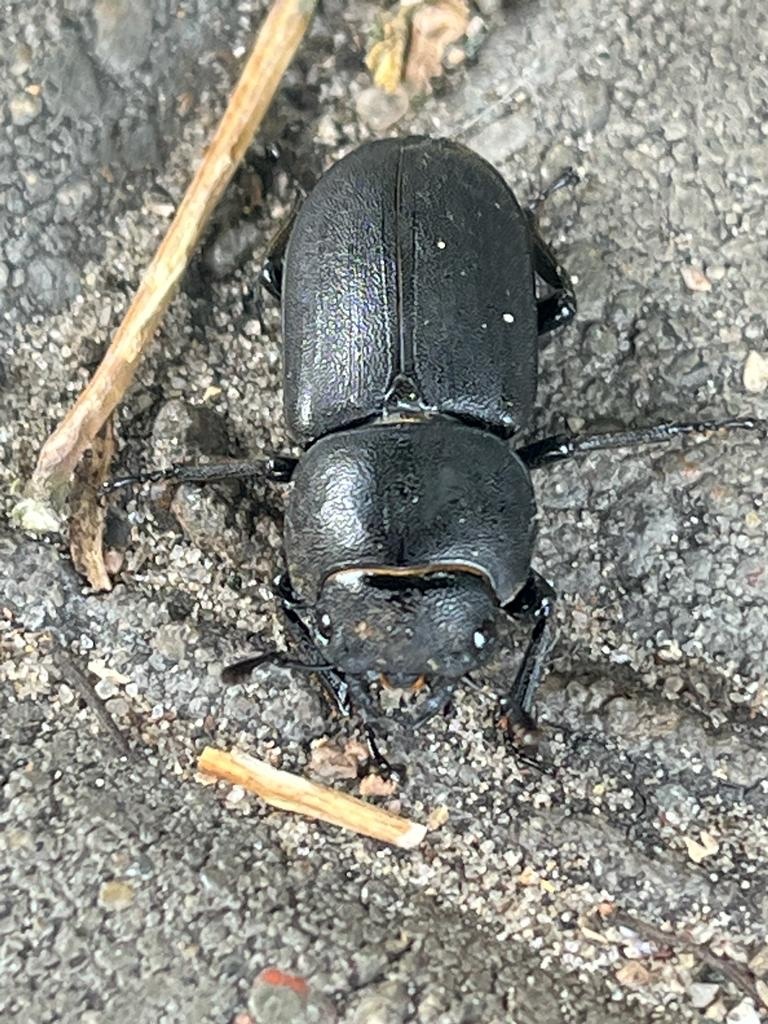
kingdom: Animalia
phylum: Arthropoda
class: Insecta
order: Coleoptera
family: Lucanidae
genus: Dorcus
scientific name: Dorcus parallelipipedus
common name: Lesser stag beetle
